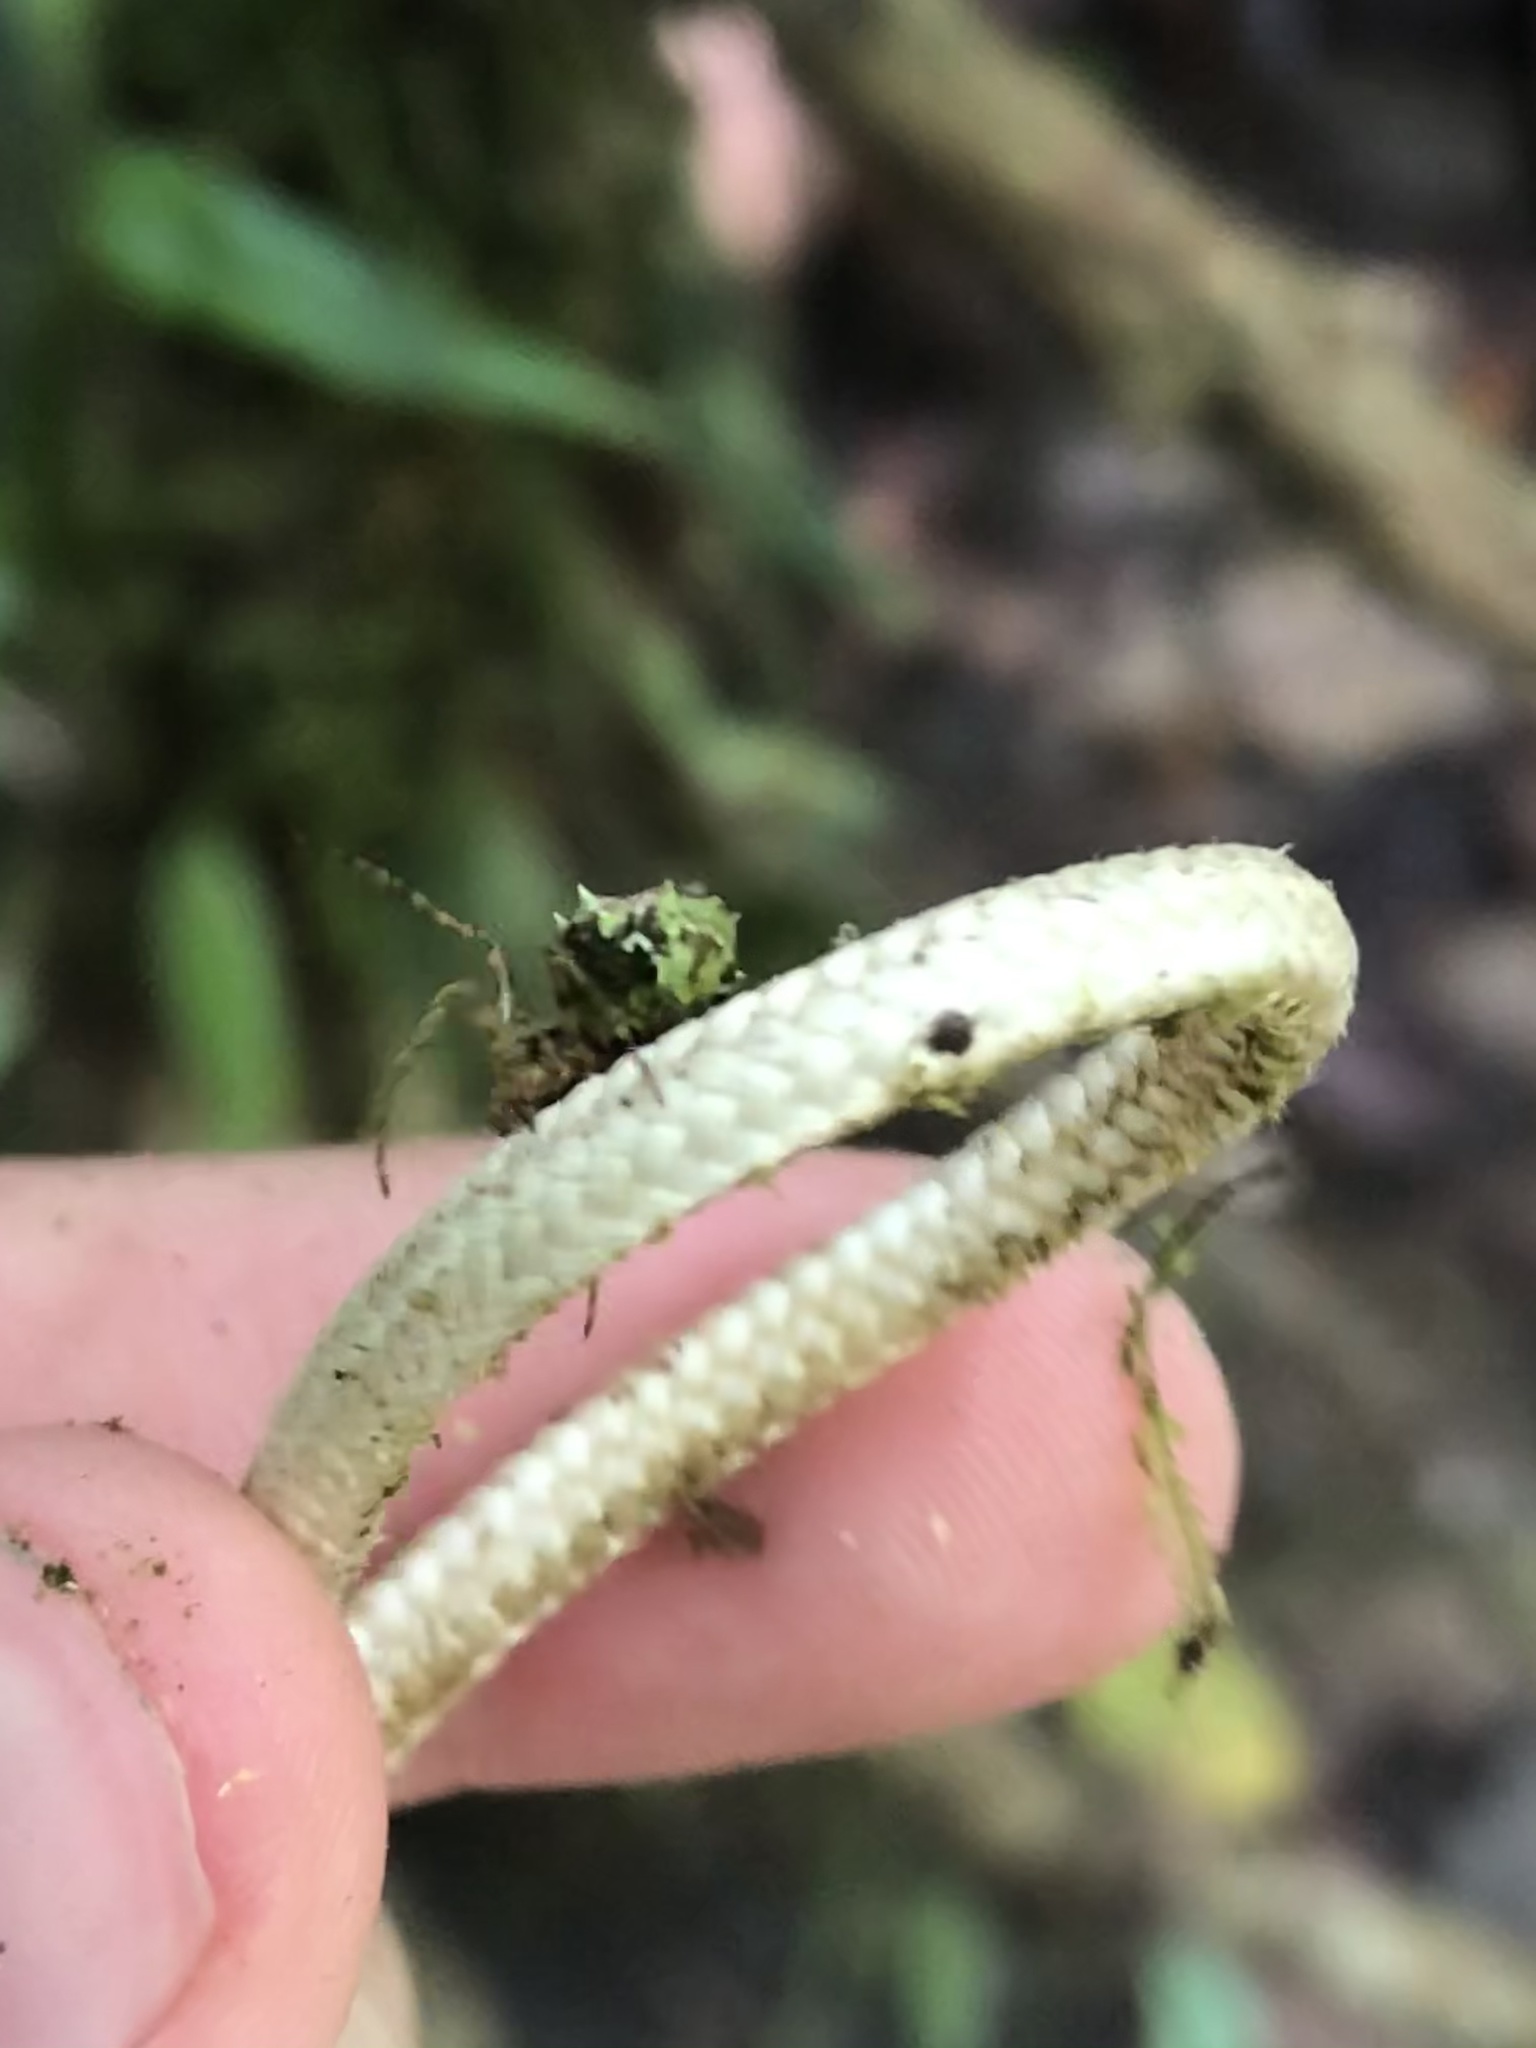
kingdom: Animalia
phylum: Arthropoda
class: Arachnida
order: Araneae
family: Araneidae
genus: Wagneriana
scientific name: Wagneriana silvae
